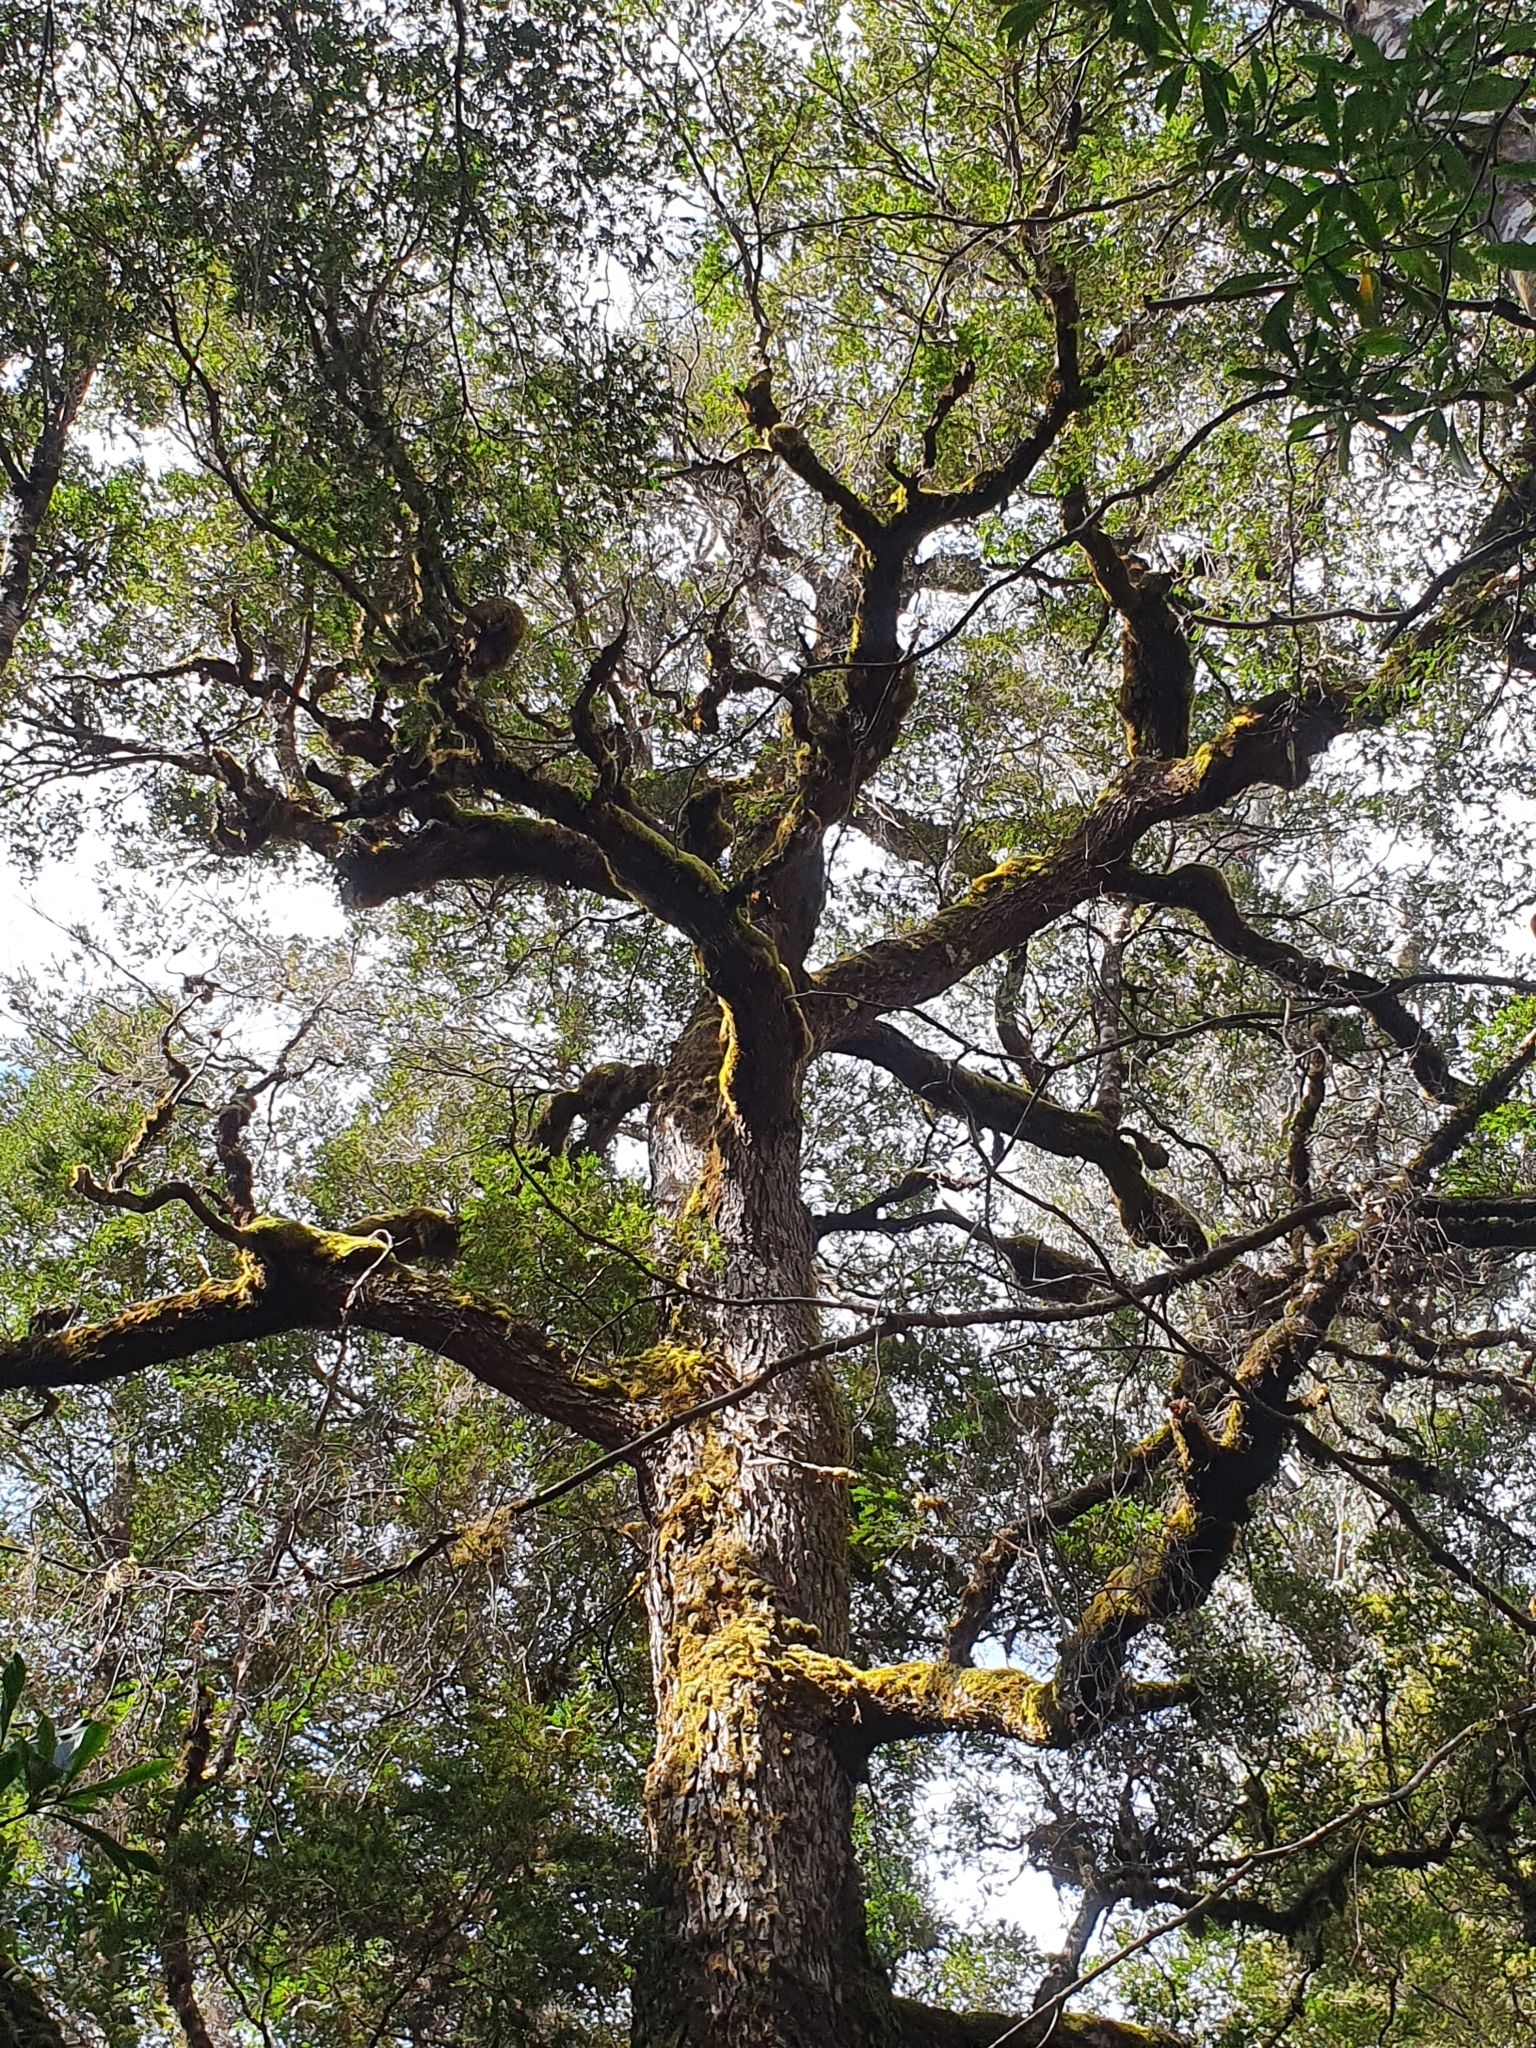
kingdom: Plantae
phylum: Tracheophyta
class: Magnoliopsida
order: Fagales
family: Nothofagaceae
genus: Nothofagus
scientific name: Nothofagus cunninghamii
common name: Myrtle beech
